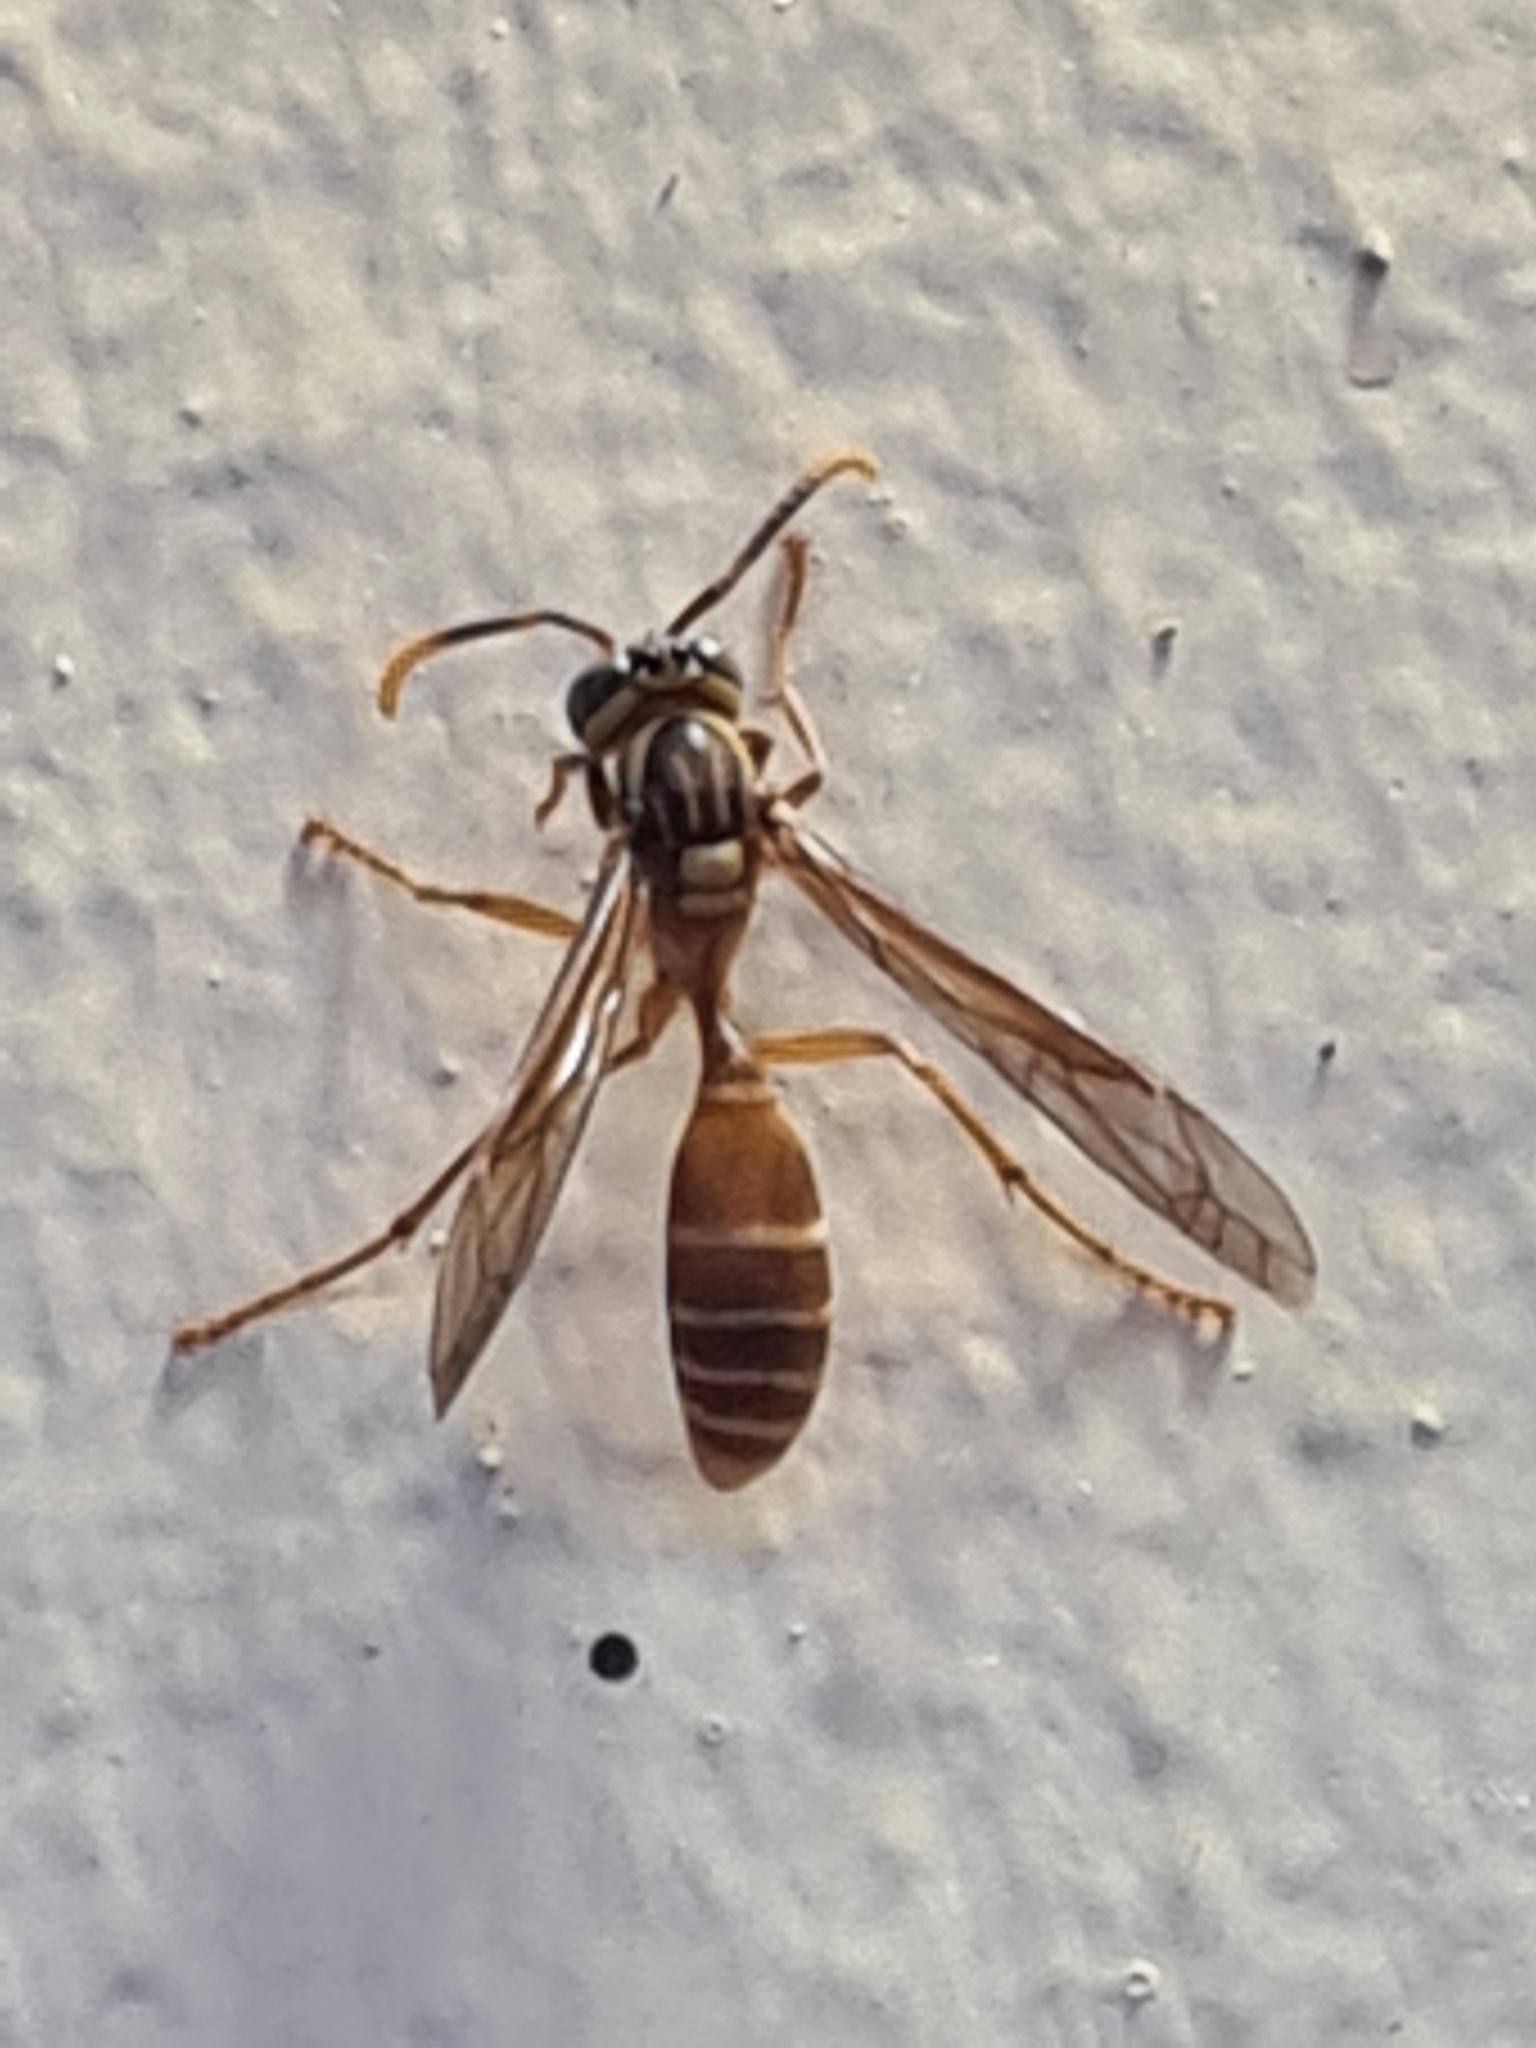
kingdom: Animalia
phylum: Arthropoda
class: Insecta
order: Hymenoptera
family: Vespidae
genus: Apoica
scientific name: Apoica pallida
